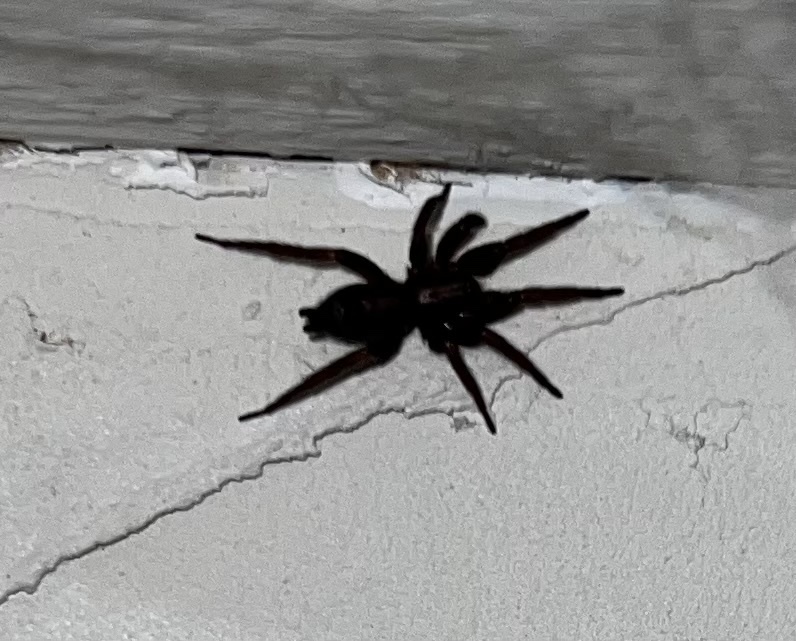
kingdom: Animalia
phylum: Arthropoda
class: Arachnida
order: Araneae
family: Gnaphosidae
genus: Herpyllus
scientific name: Herpyllus ecclesiasticus
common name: Eastern parson spider
